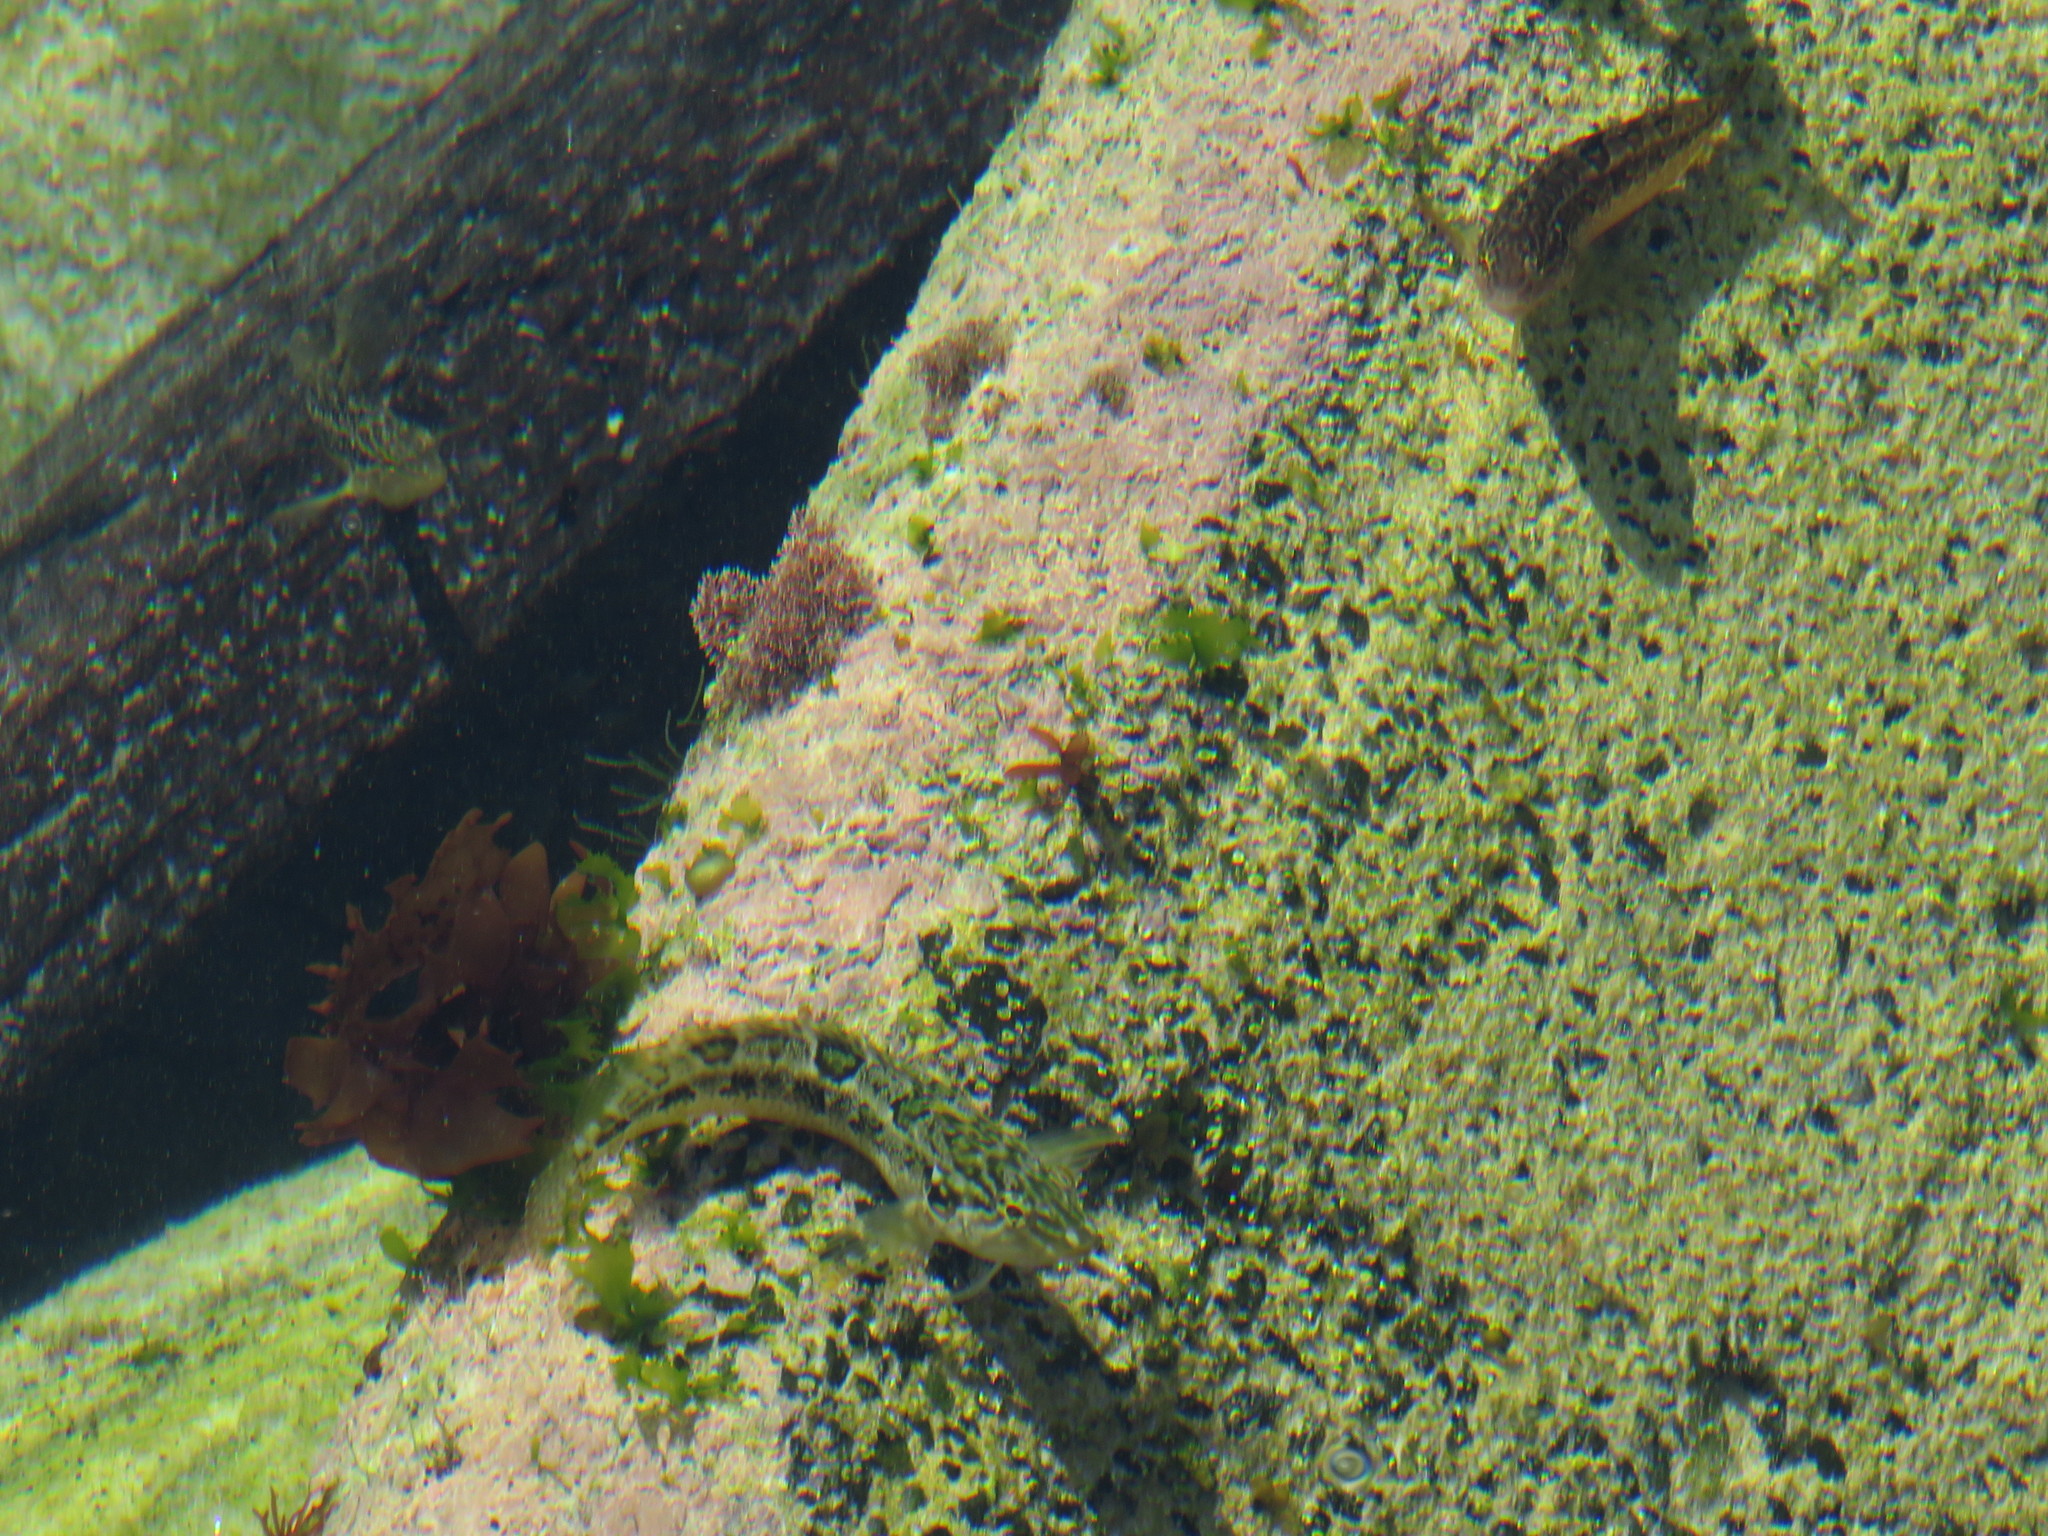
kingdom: Animalia
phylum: Chordata
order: Perciformes
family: Clinidae
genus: Clinus
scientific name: Clinus superciliosus
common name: Super klipfish
